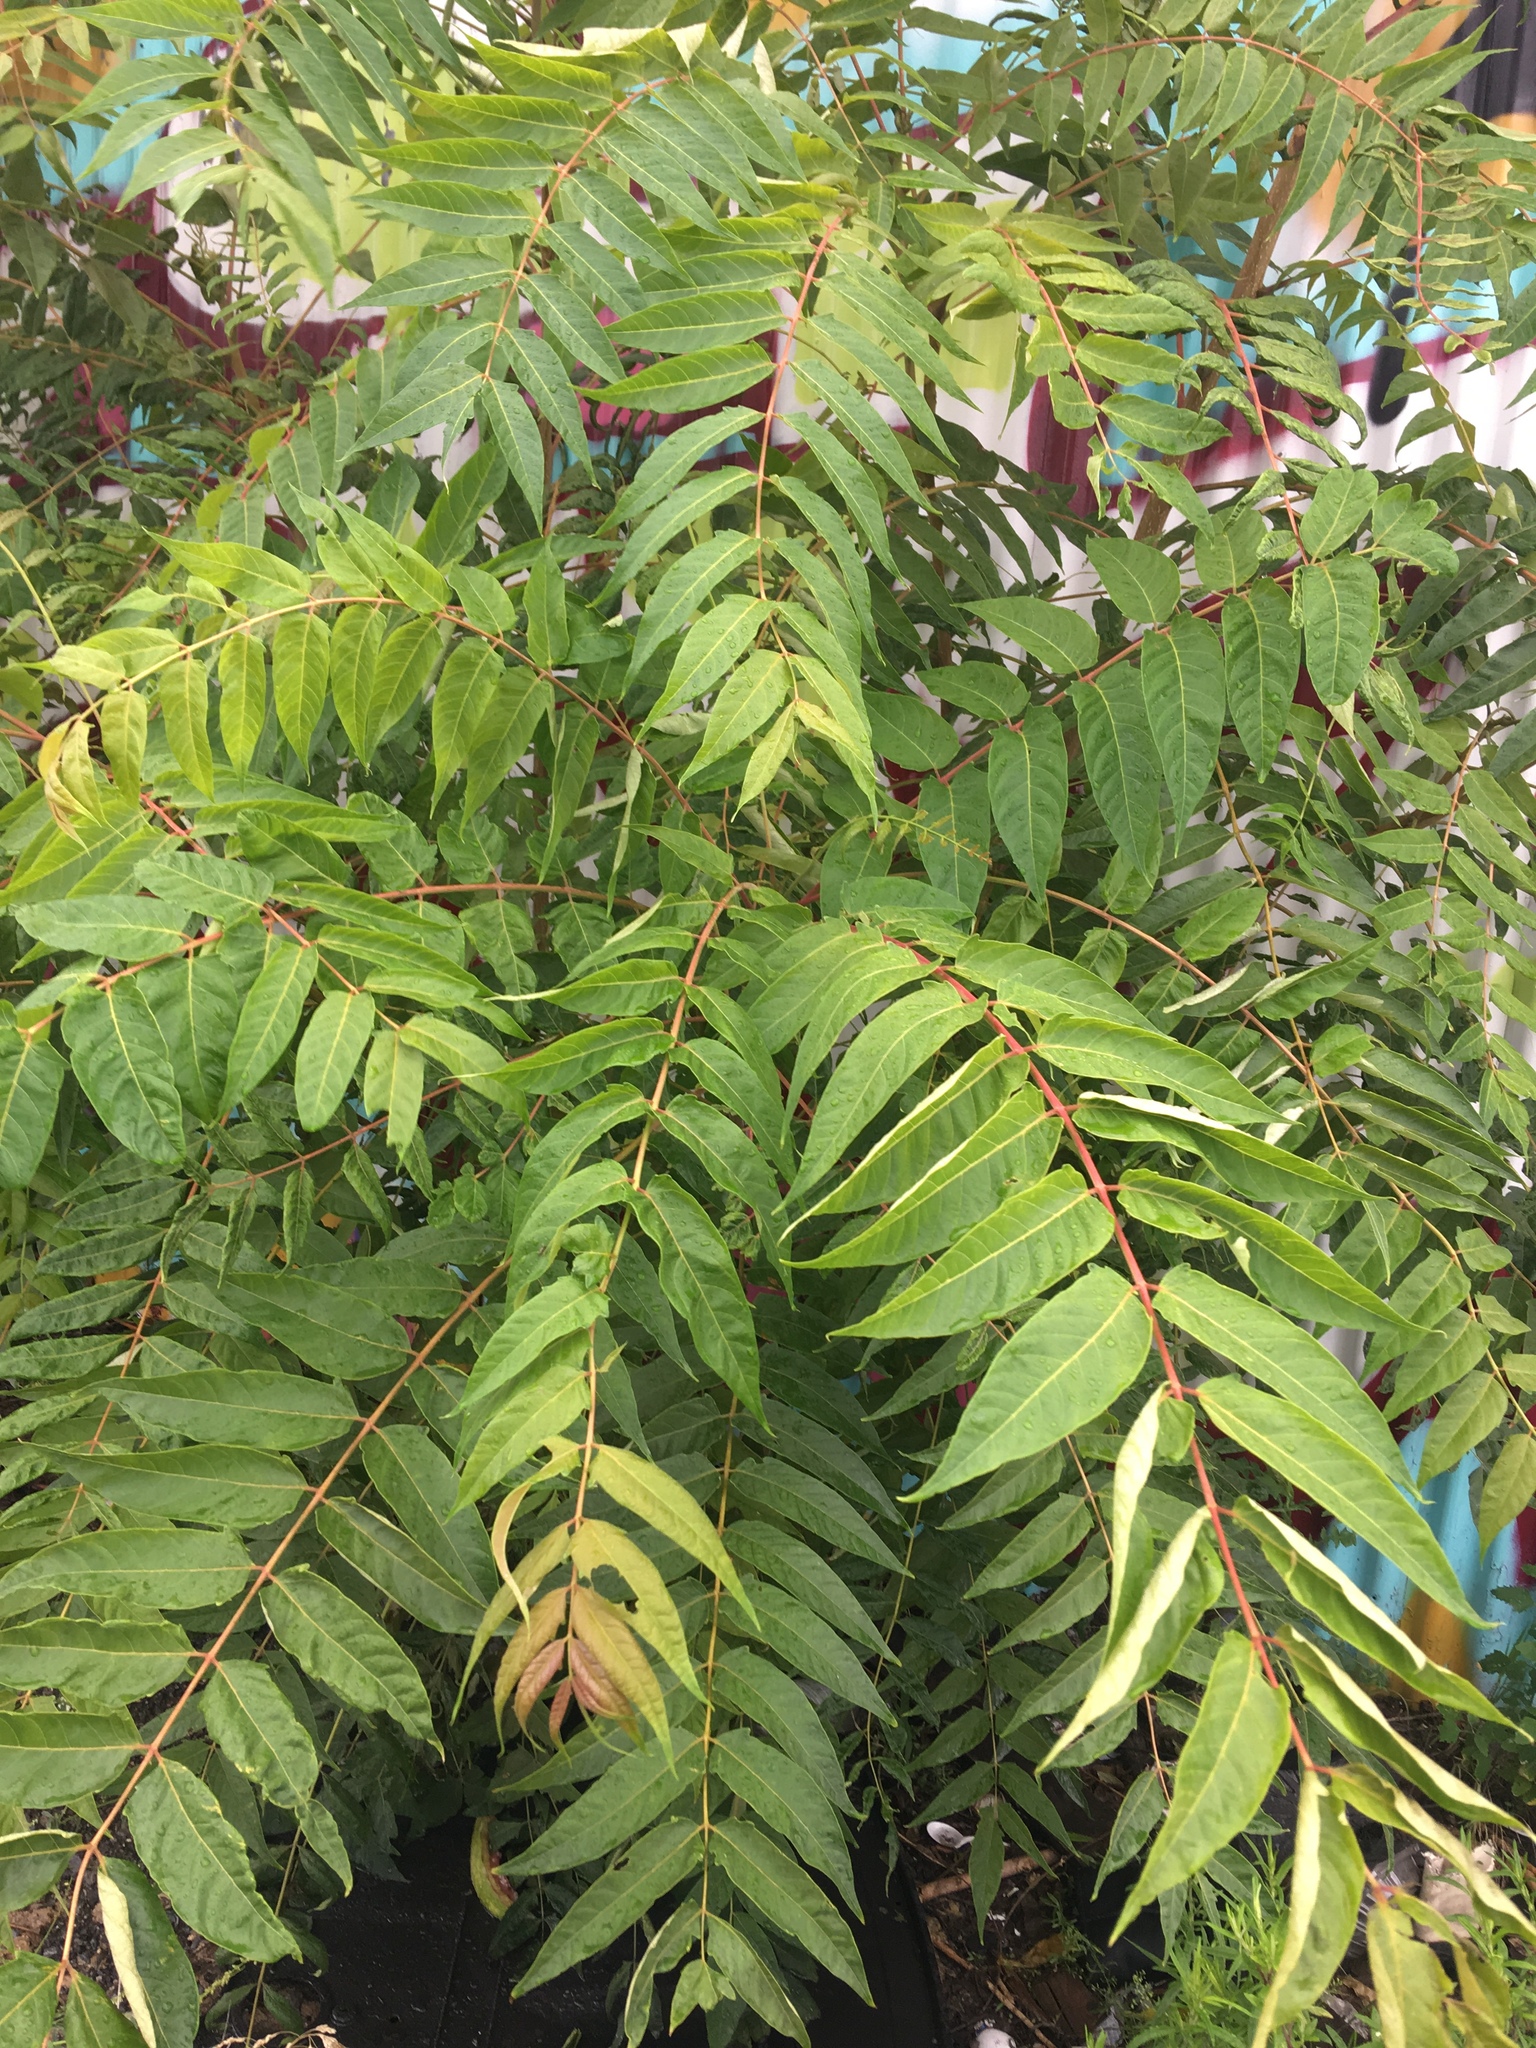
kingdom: Plantae
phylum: Tracheophyta
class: Magnoliopsida
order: Sapindales
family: Simaroubaceae
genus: Ailanthus
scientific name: Ailanthus altissima
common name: Tree-of-heaven
